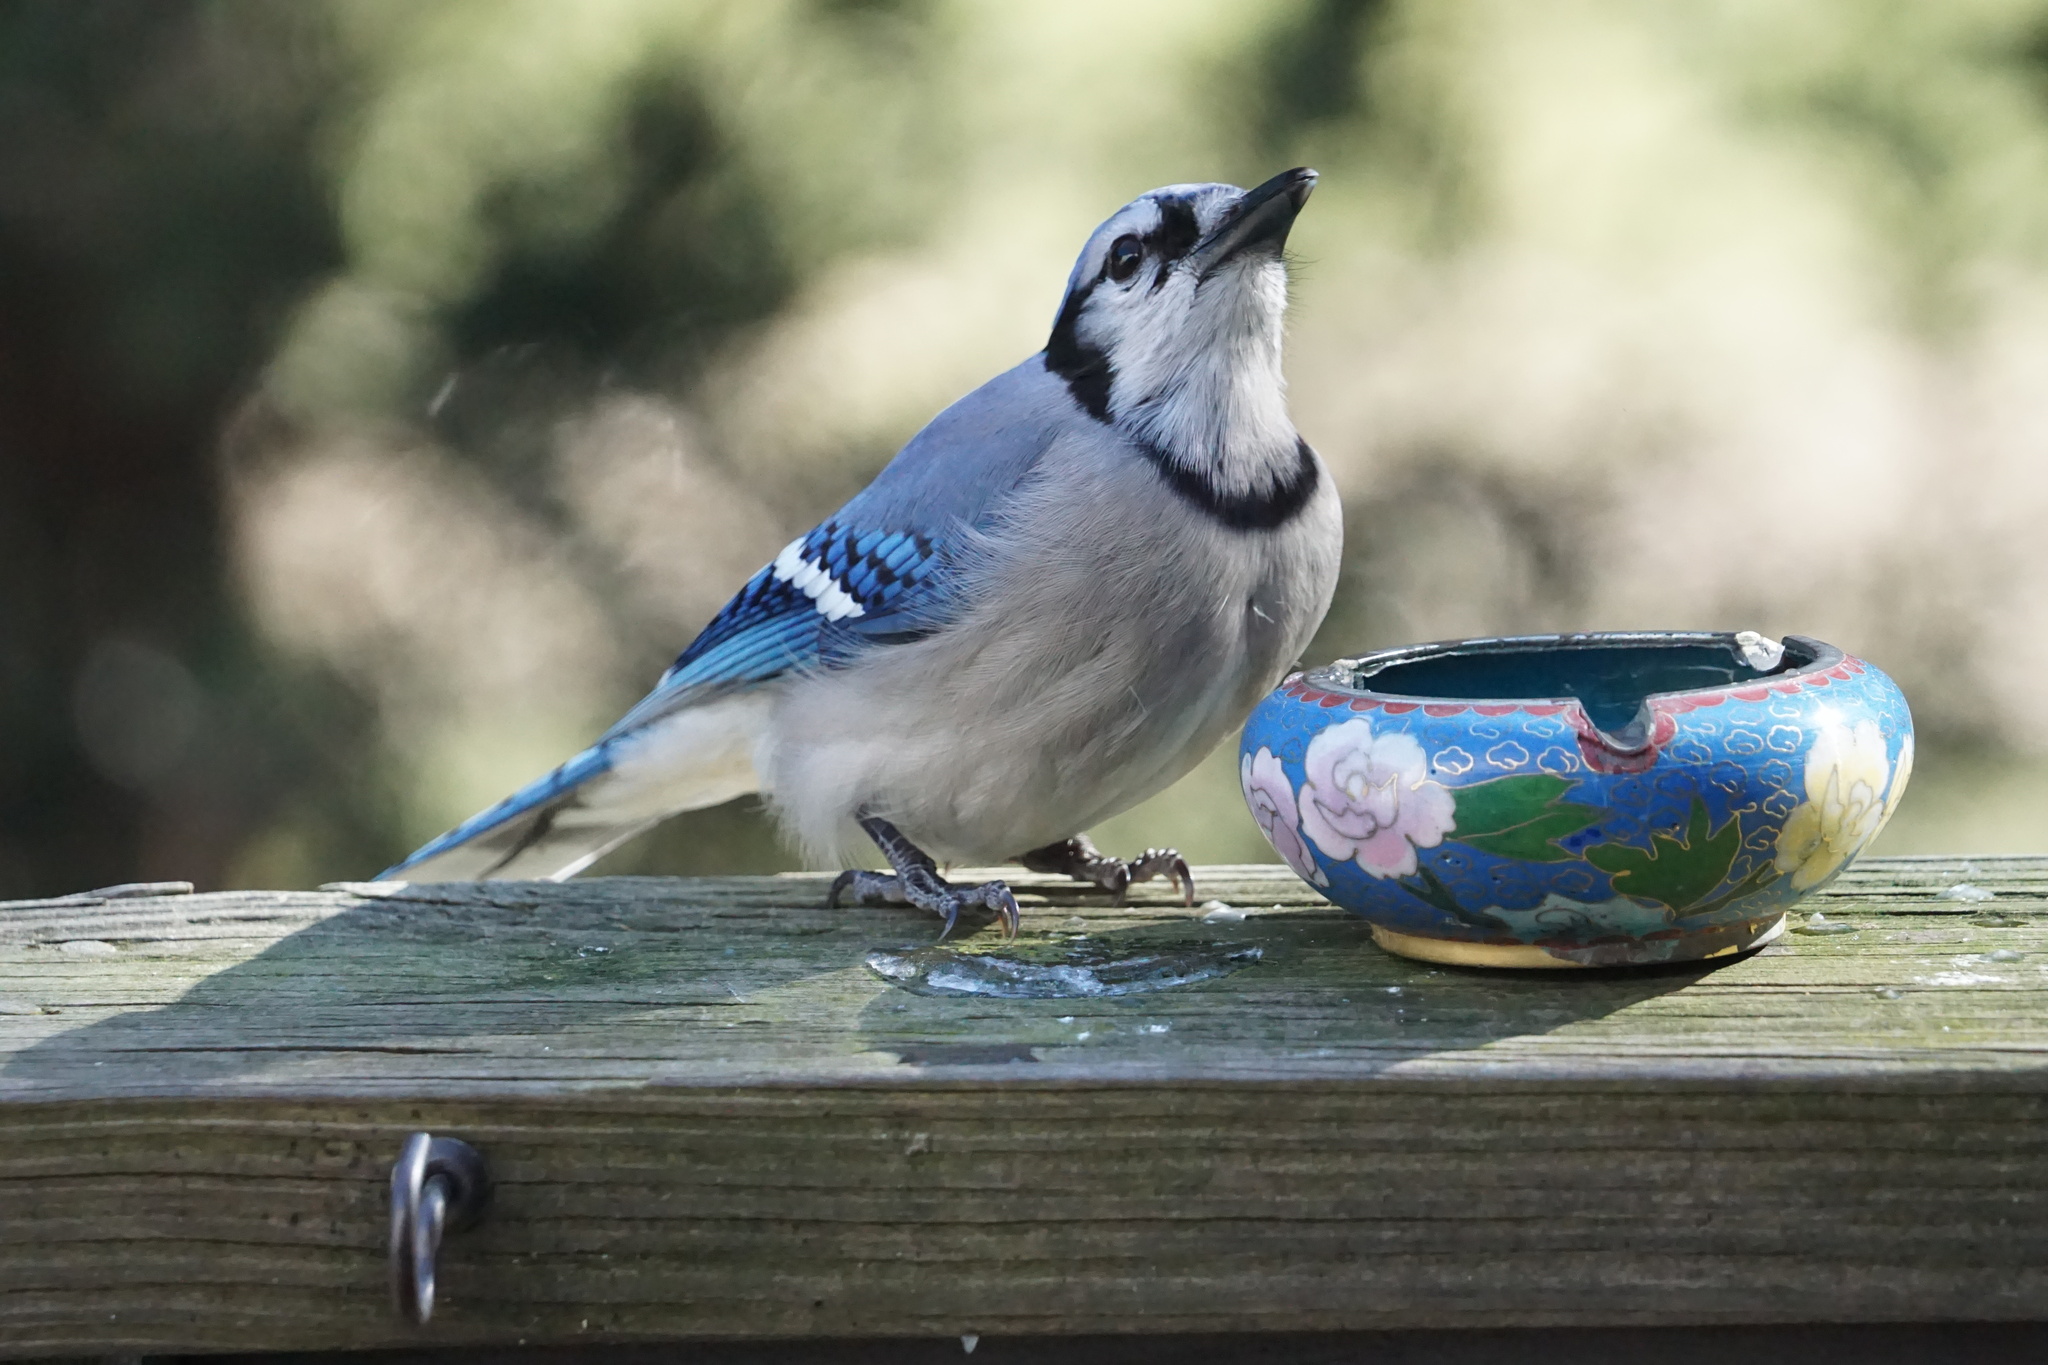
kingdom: Animalia
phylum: Chordata
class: Aves
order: Passeriformes
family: Corvidae
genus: Cyanocitta
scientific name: Cyanocitta cristata
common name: Blue jay
